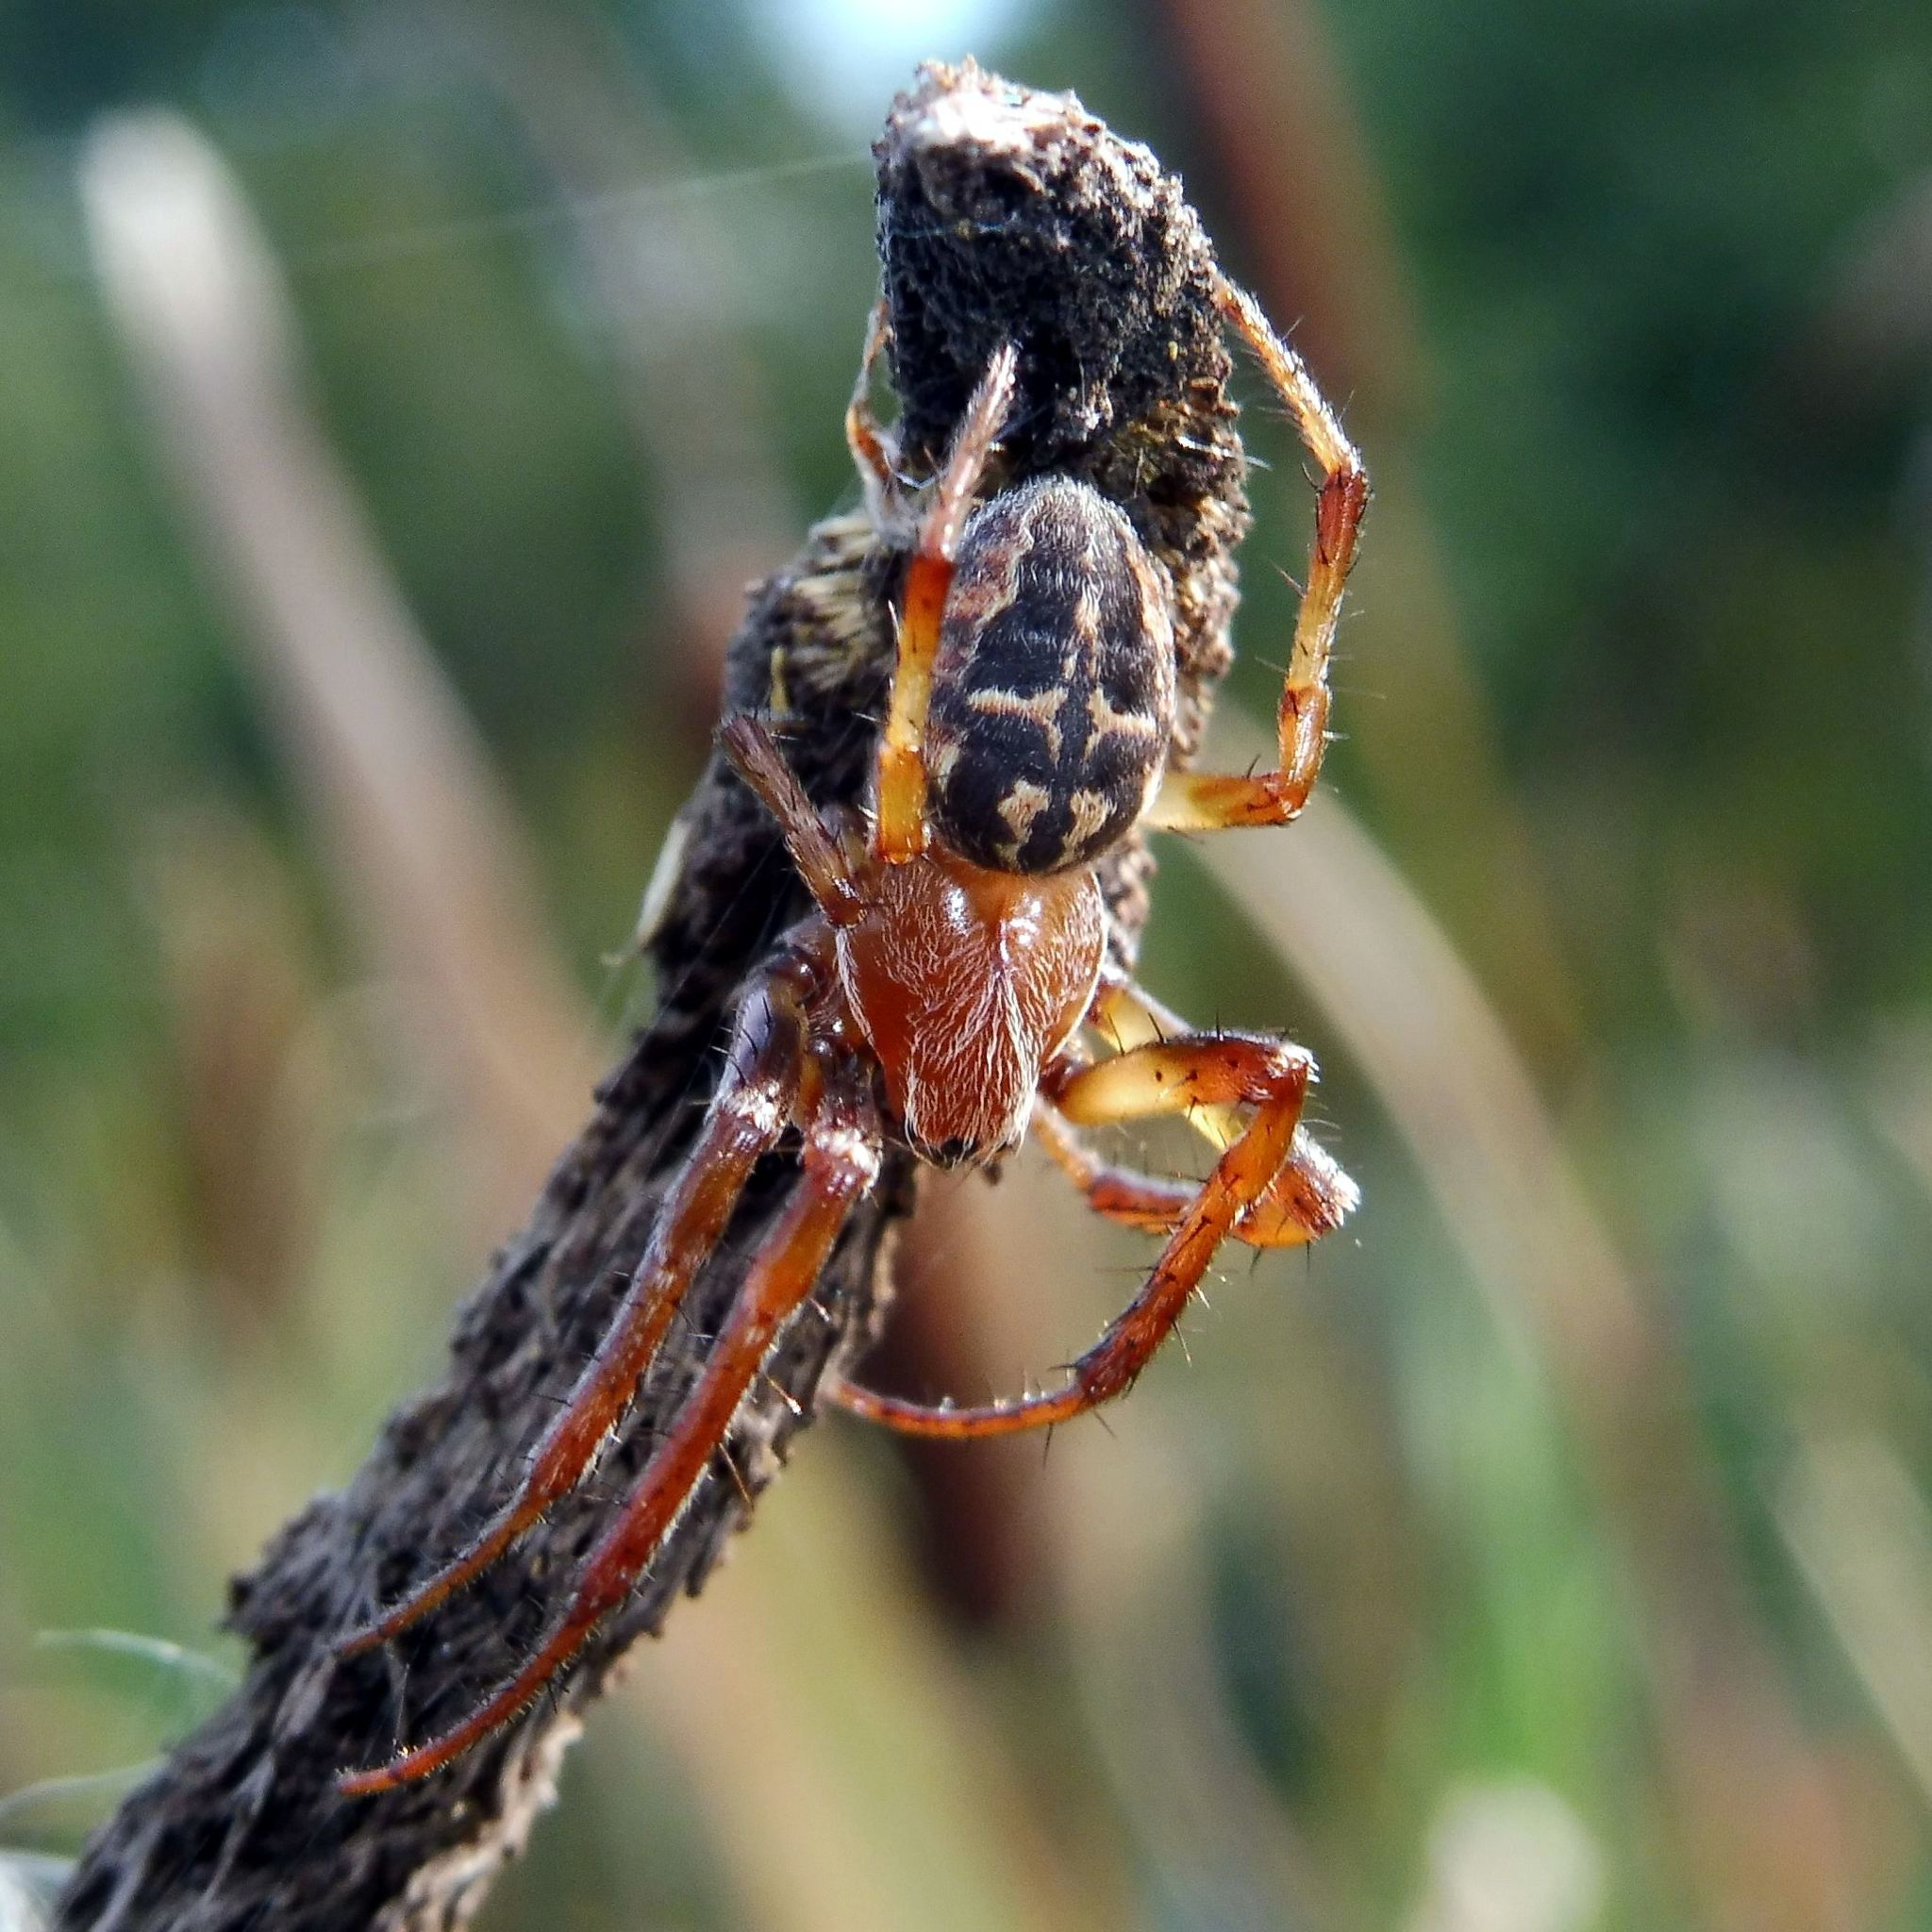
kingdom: Animalia
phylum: Arthropoda
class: Arachnida
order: Araneae
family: Araneidae
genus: Larinioides
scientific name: Larinioides cornutus
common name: Furrow orbweaver
